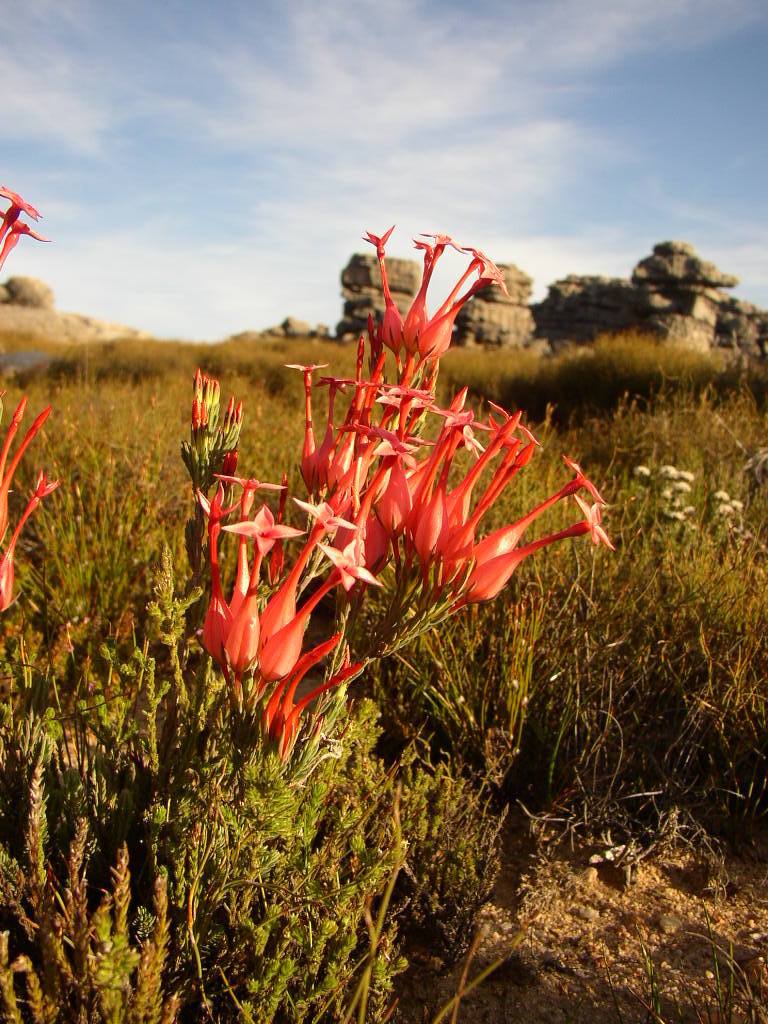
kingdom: Plantae
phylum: Tracheophyta
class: Magnoliopsida
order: Ericales
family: Ericaceae
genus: Erica
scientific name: Erica junonia
